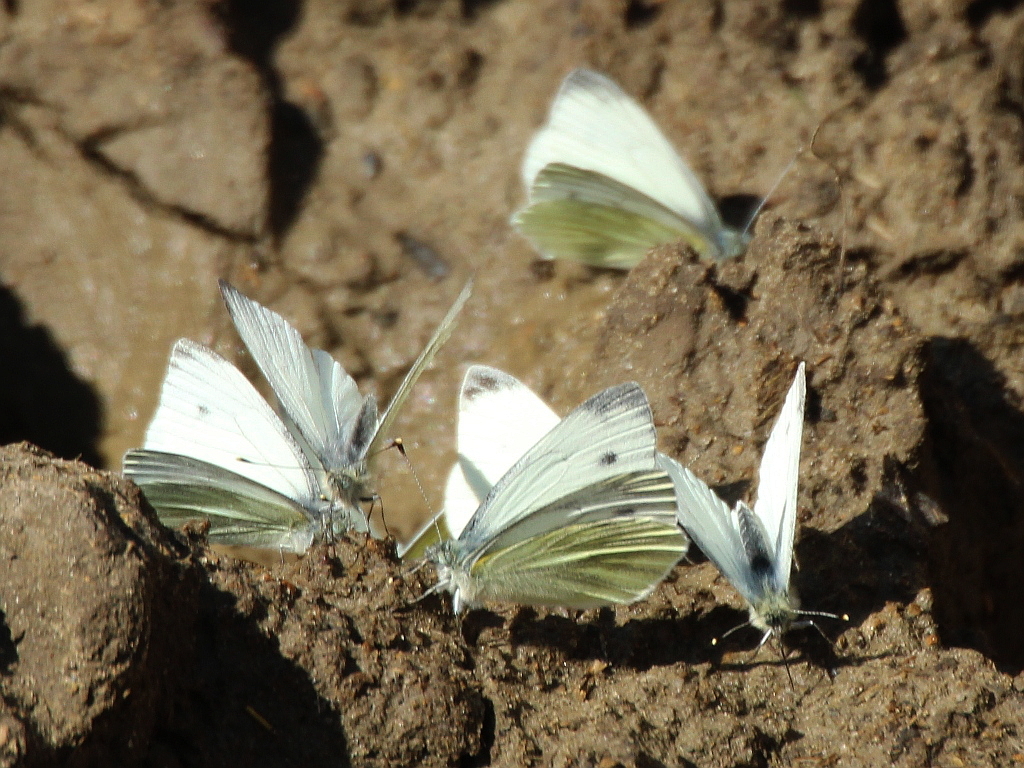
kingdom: Animalia
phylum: Arthropoda
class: Insecta
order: Lepidoptera
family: Pieridae
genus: Pieris
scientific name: Pieris napi
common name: Green-veined white
